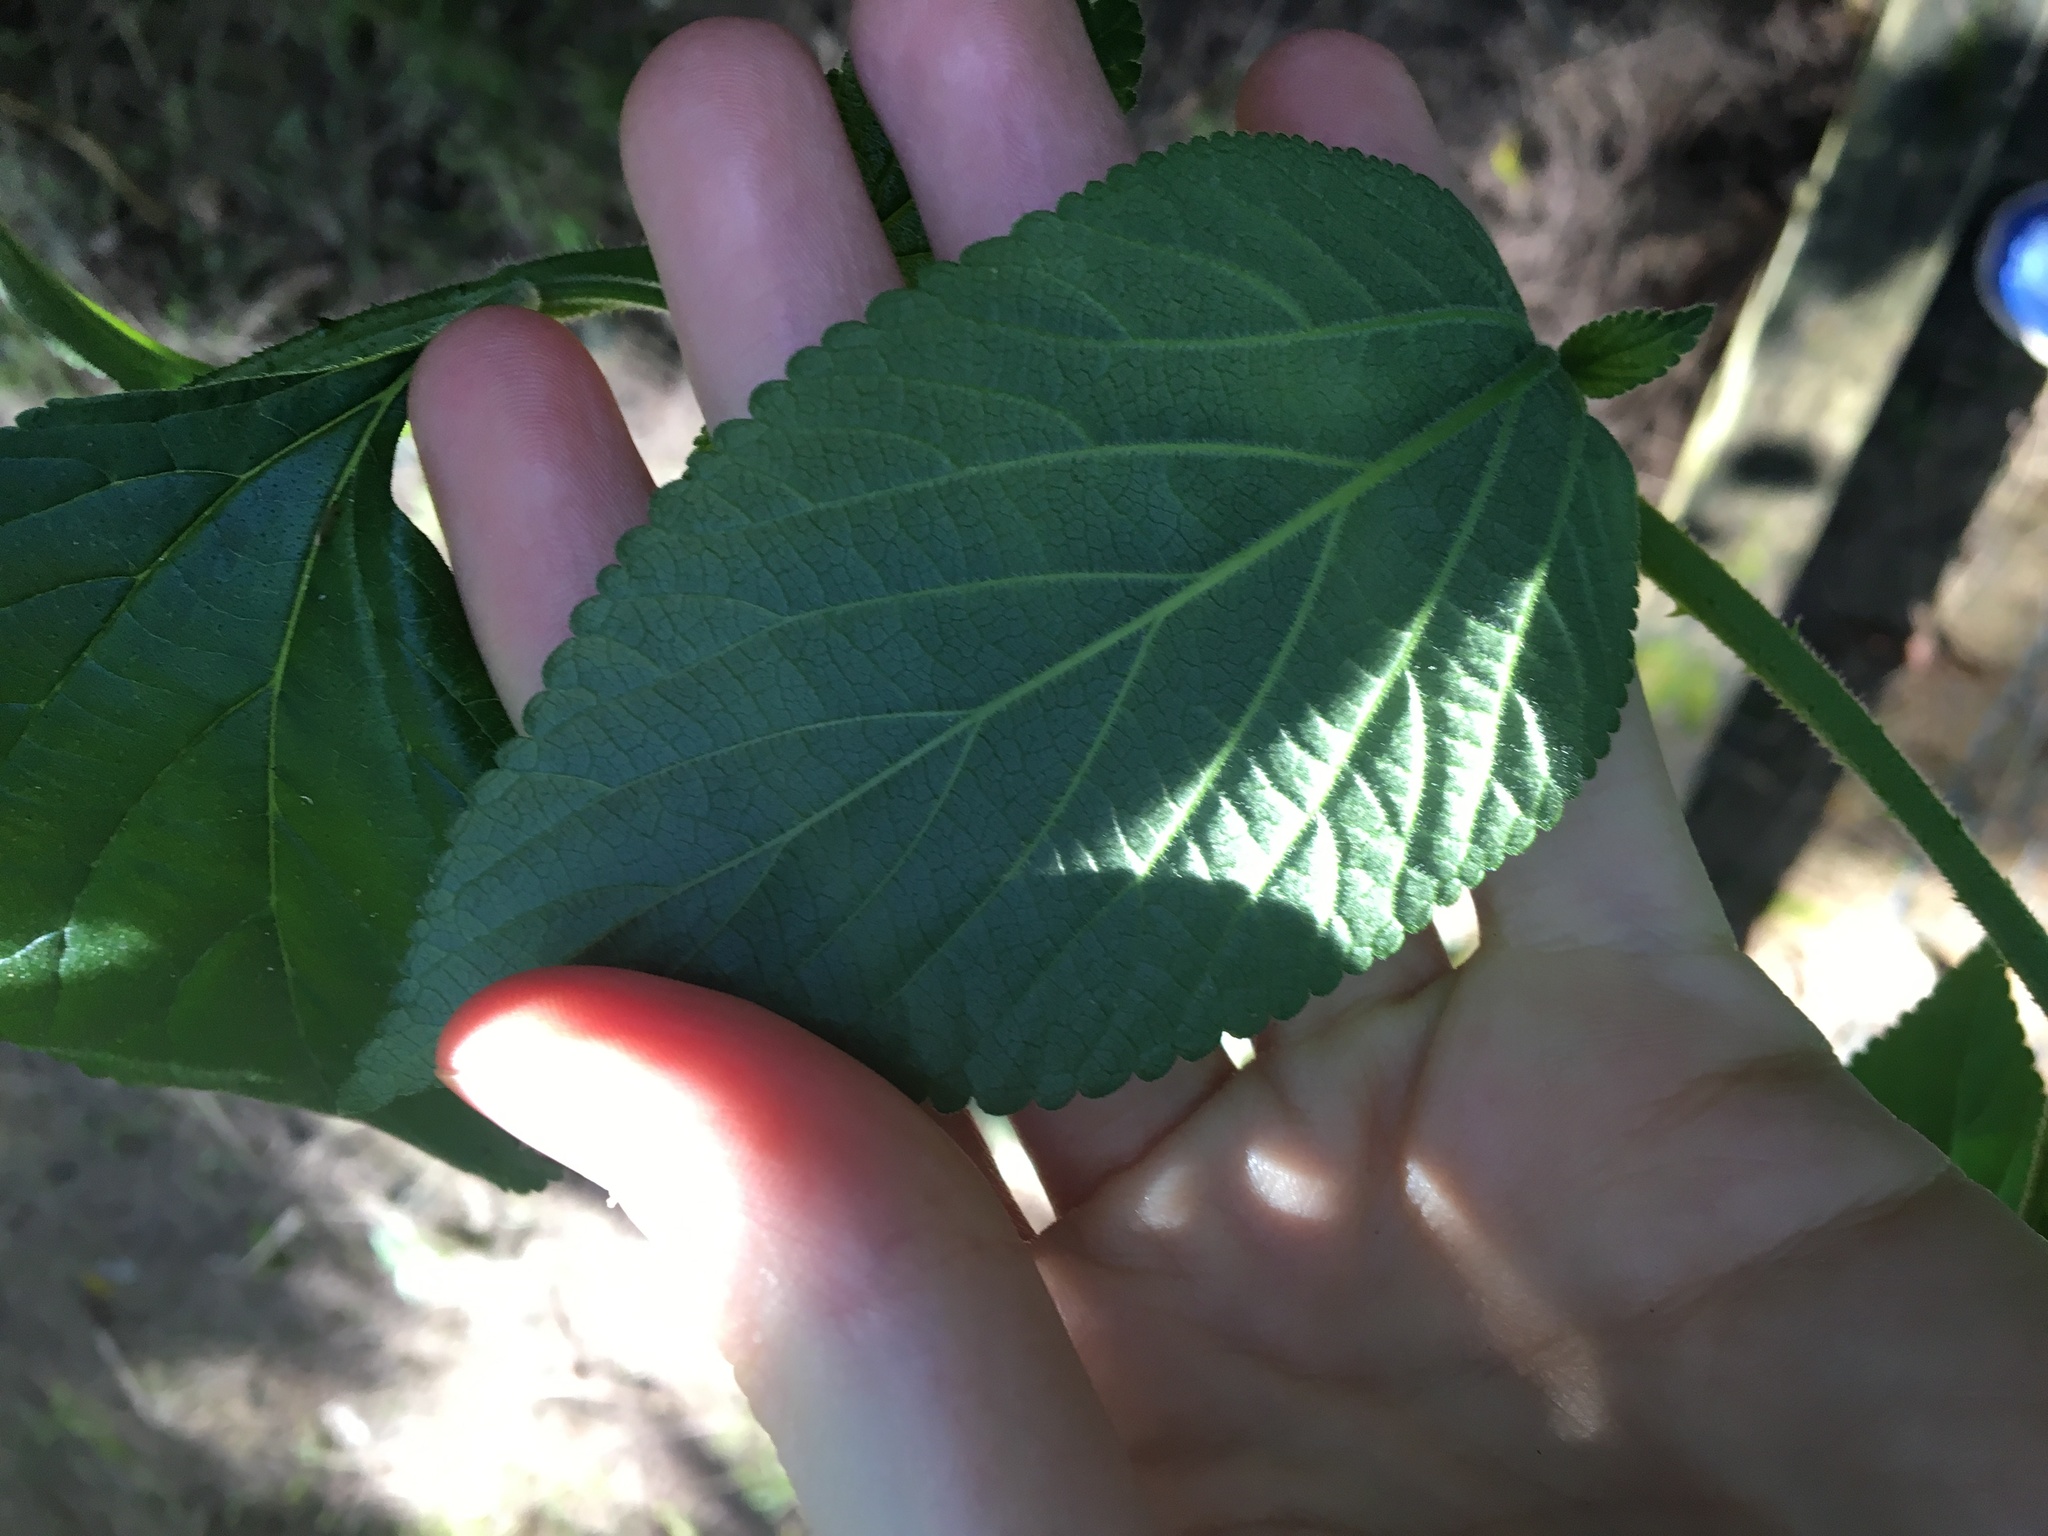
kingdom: Plantae
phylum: Tracheophyta
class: Magnoliopsida
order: Lamiales
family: Verbenaceae
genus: Lantana
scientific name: Lantana camara
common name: Lantana
